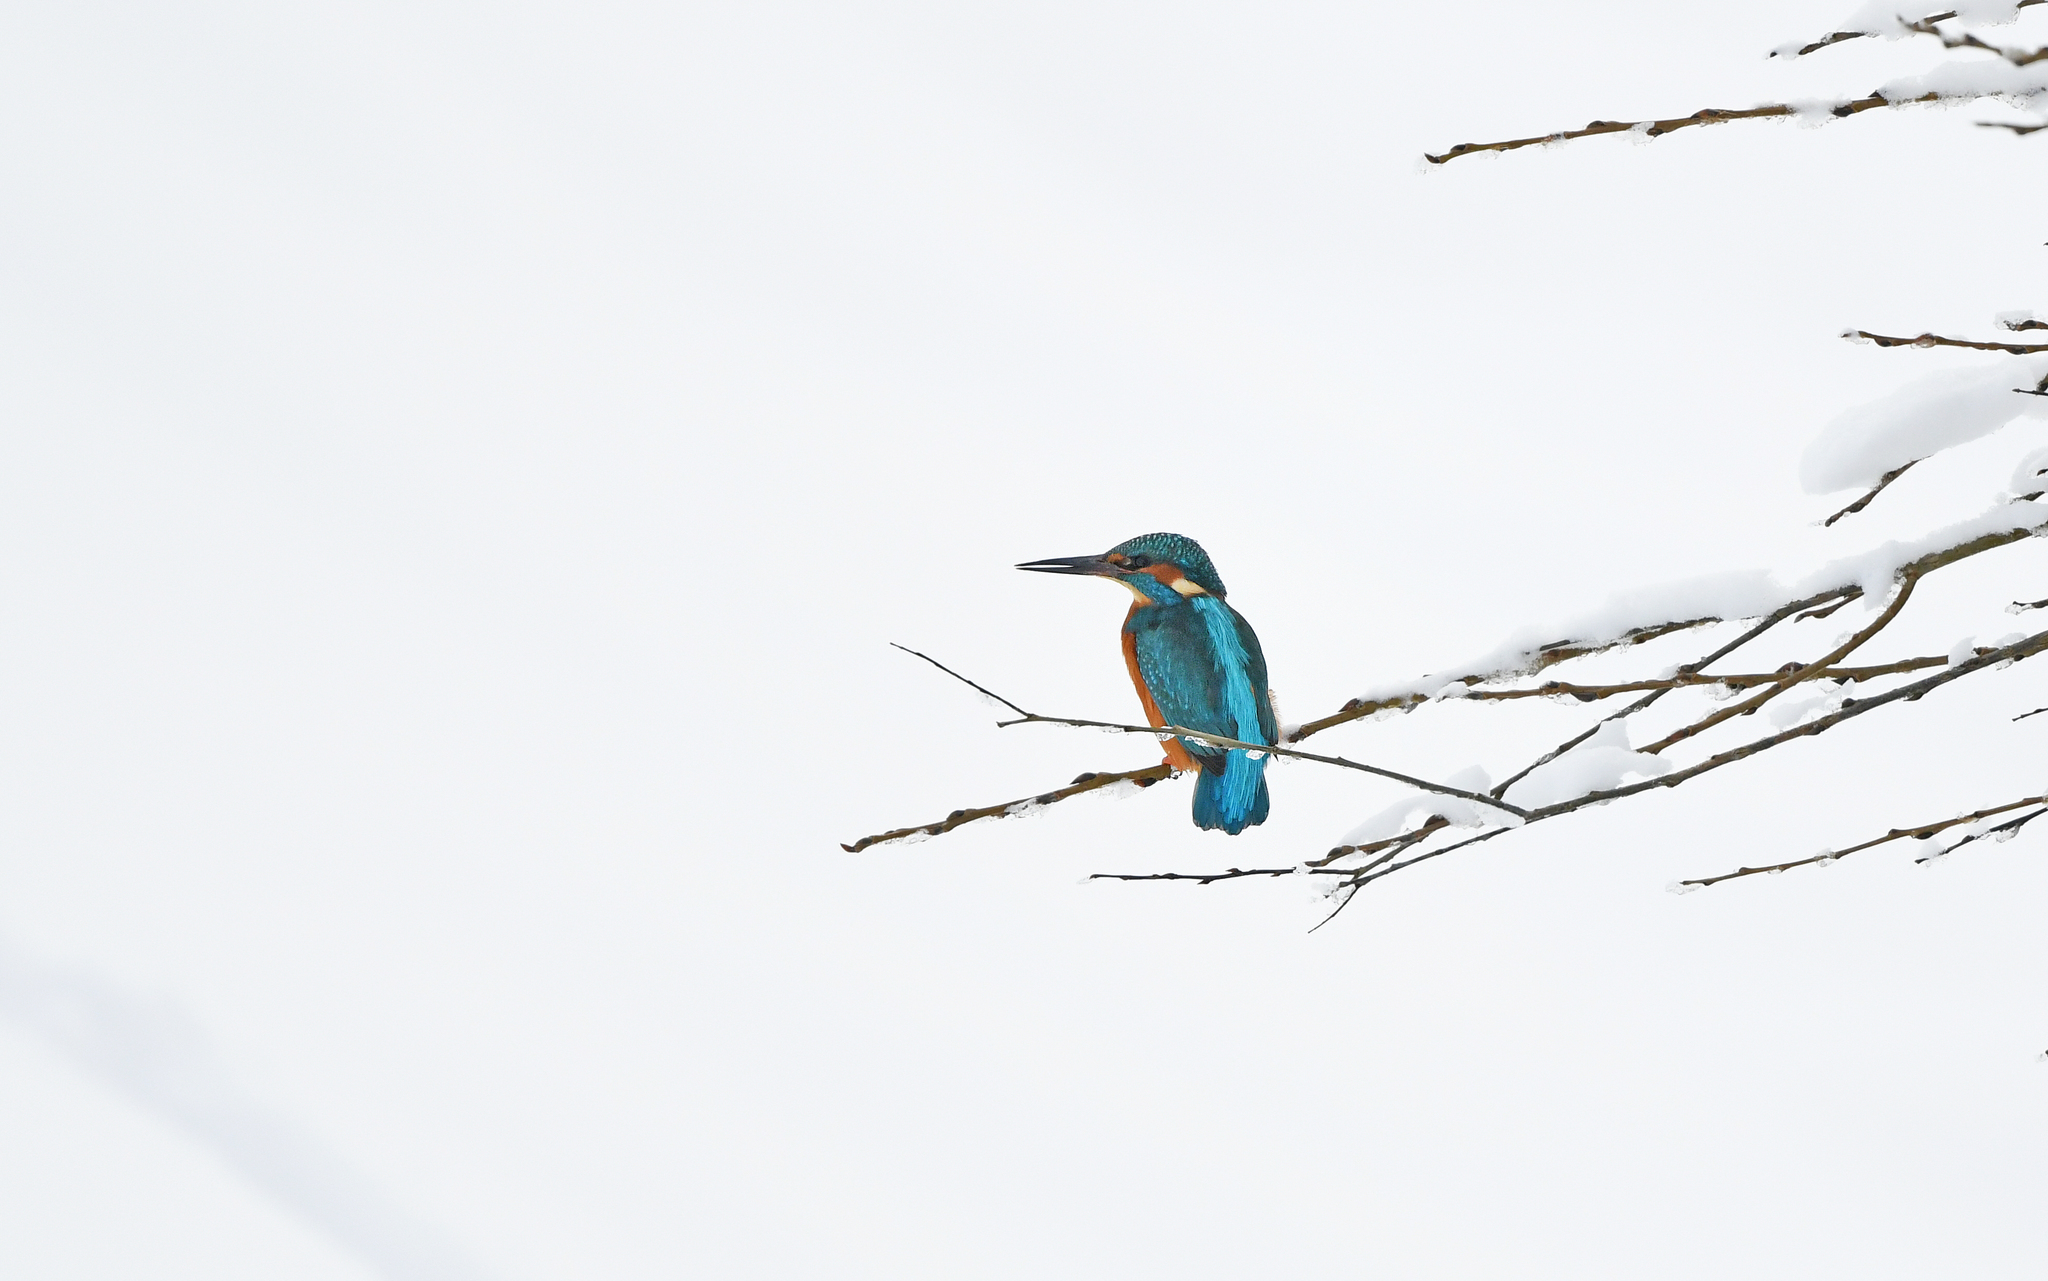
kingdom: Animalia
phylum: Chordata
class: Aves
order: Coraciiformes
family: Alcedinidae
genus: Alcedo
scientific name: Alcedo atthis
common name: Common kingfisher
